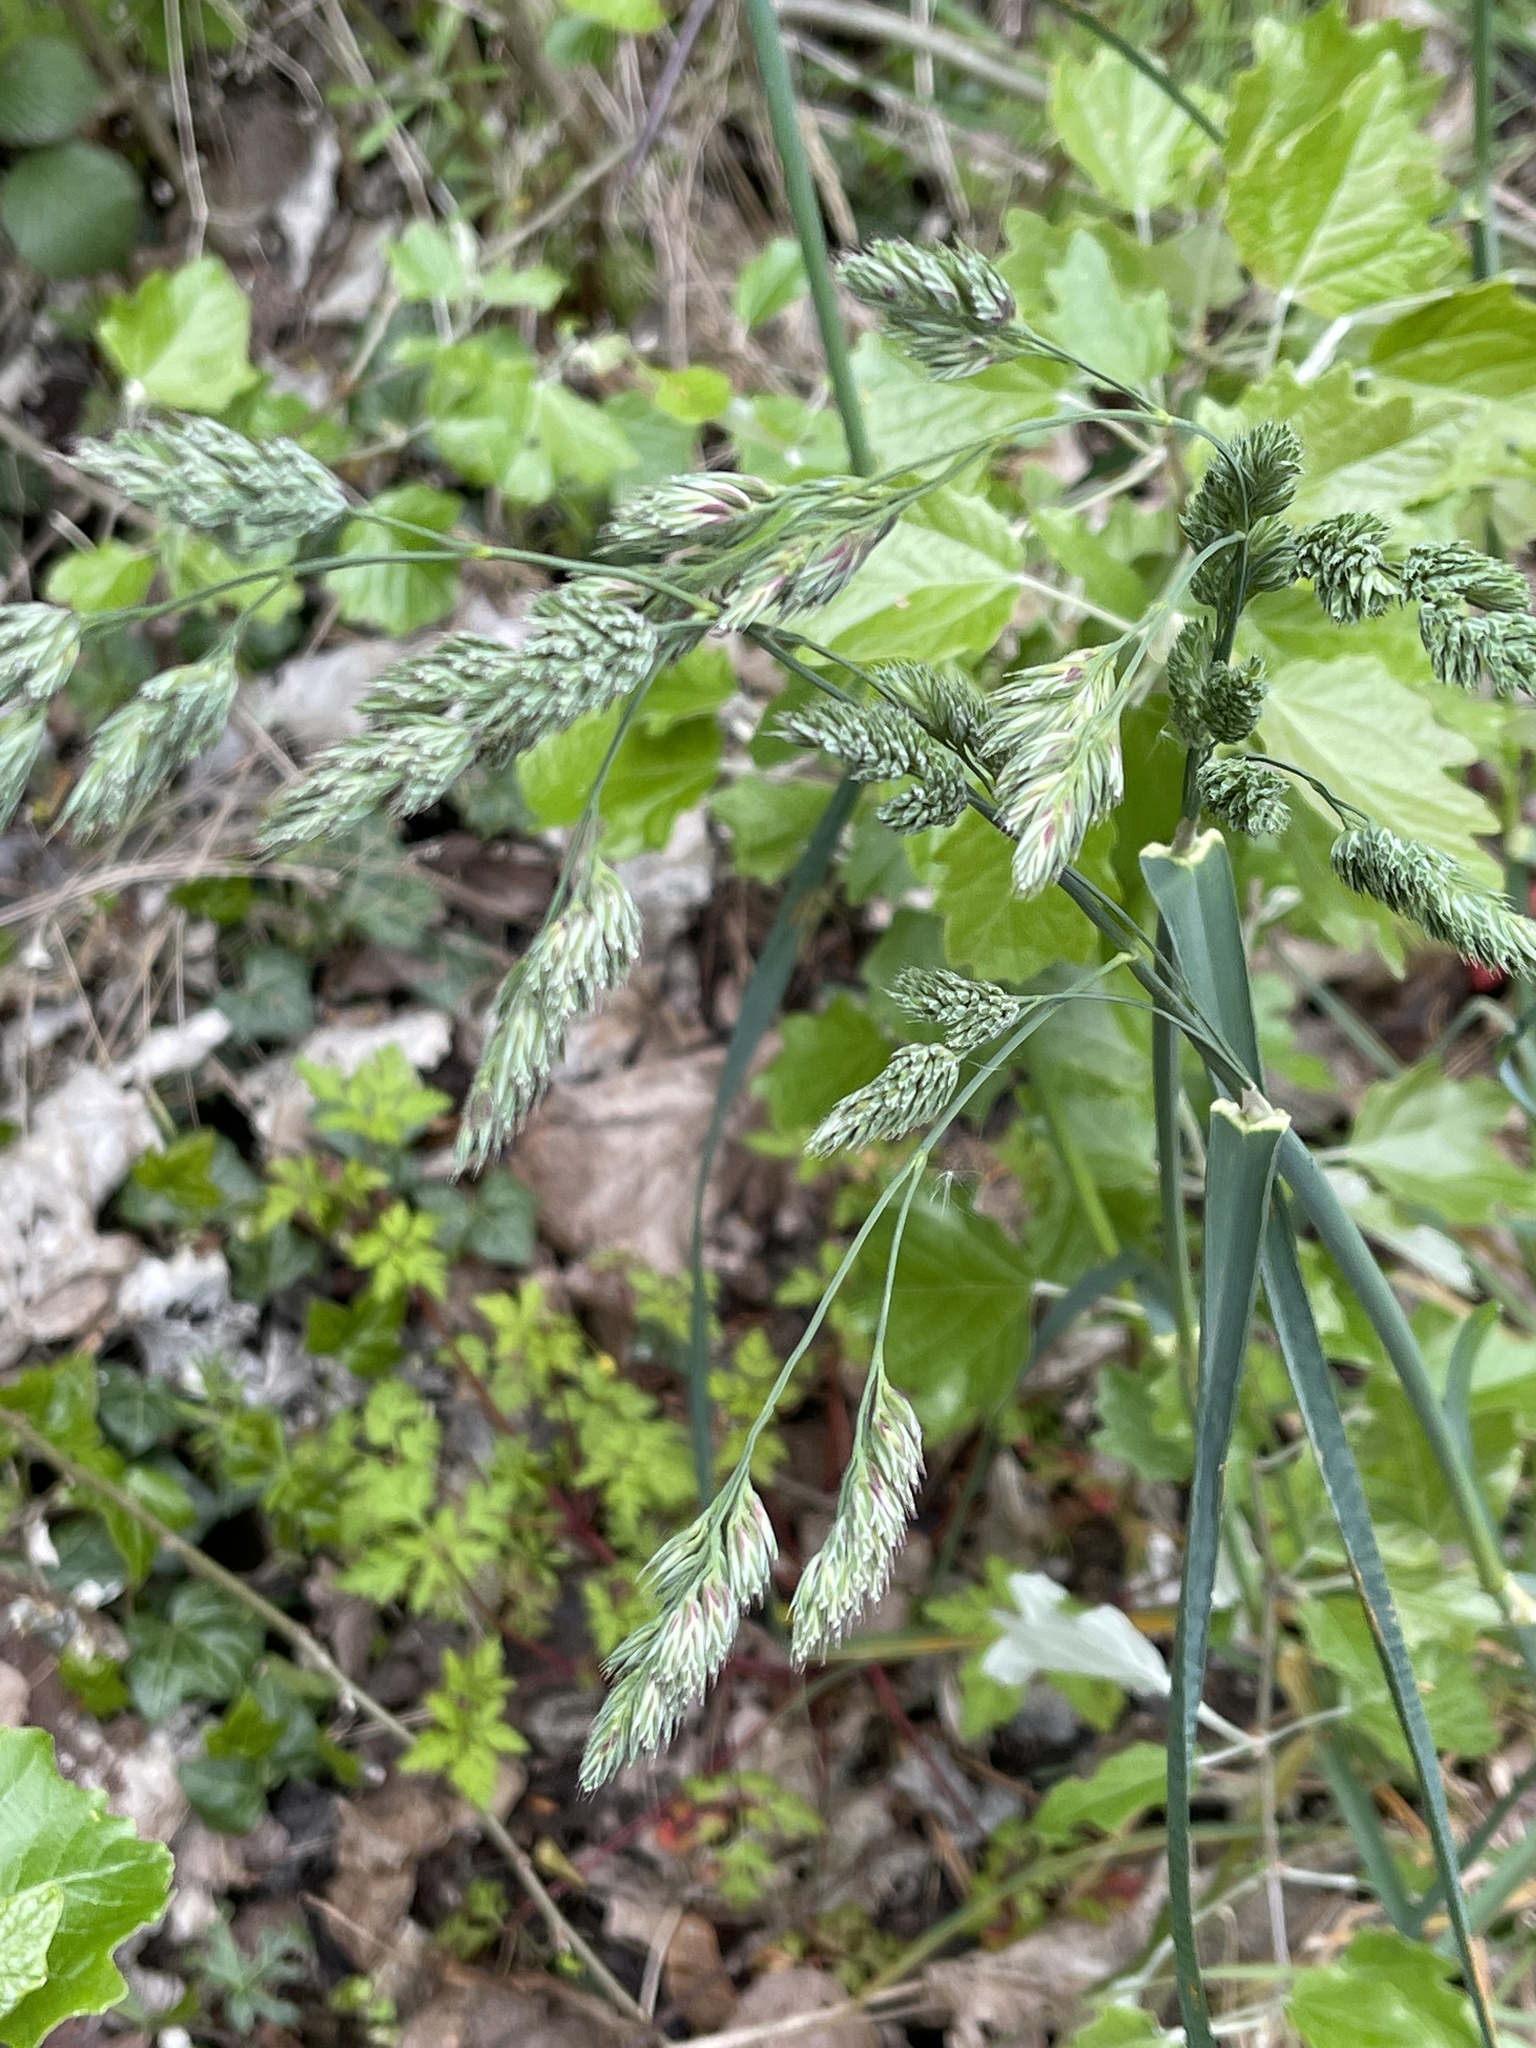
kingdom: Plantae
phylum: Tracheophyta
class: Liliopsida
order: Poales
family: Poaceae
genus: Dactylis
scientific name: Dactylis glomerata
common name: Orchardgrass
